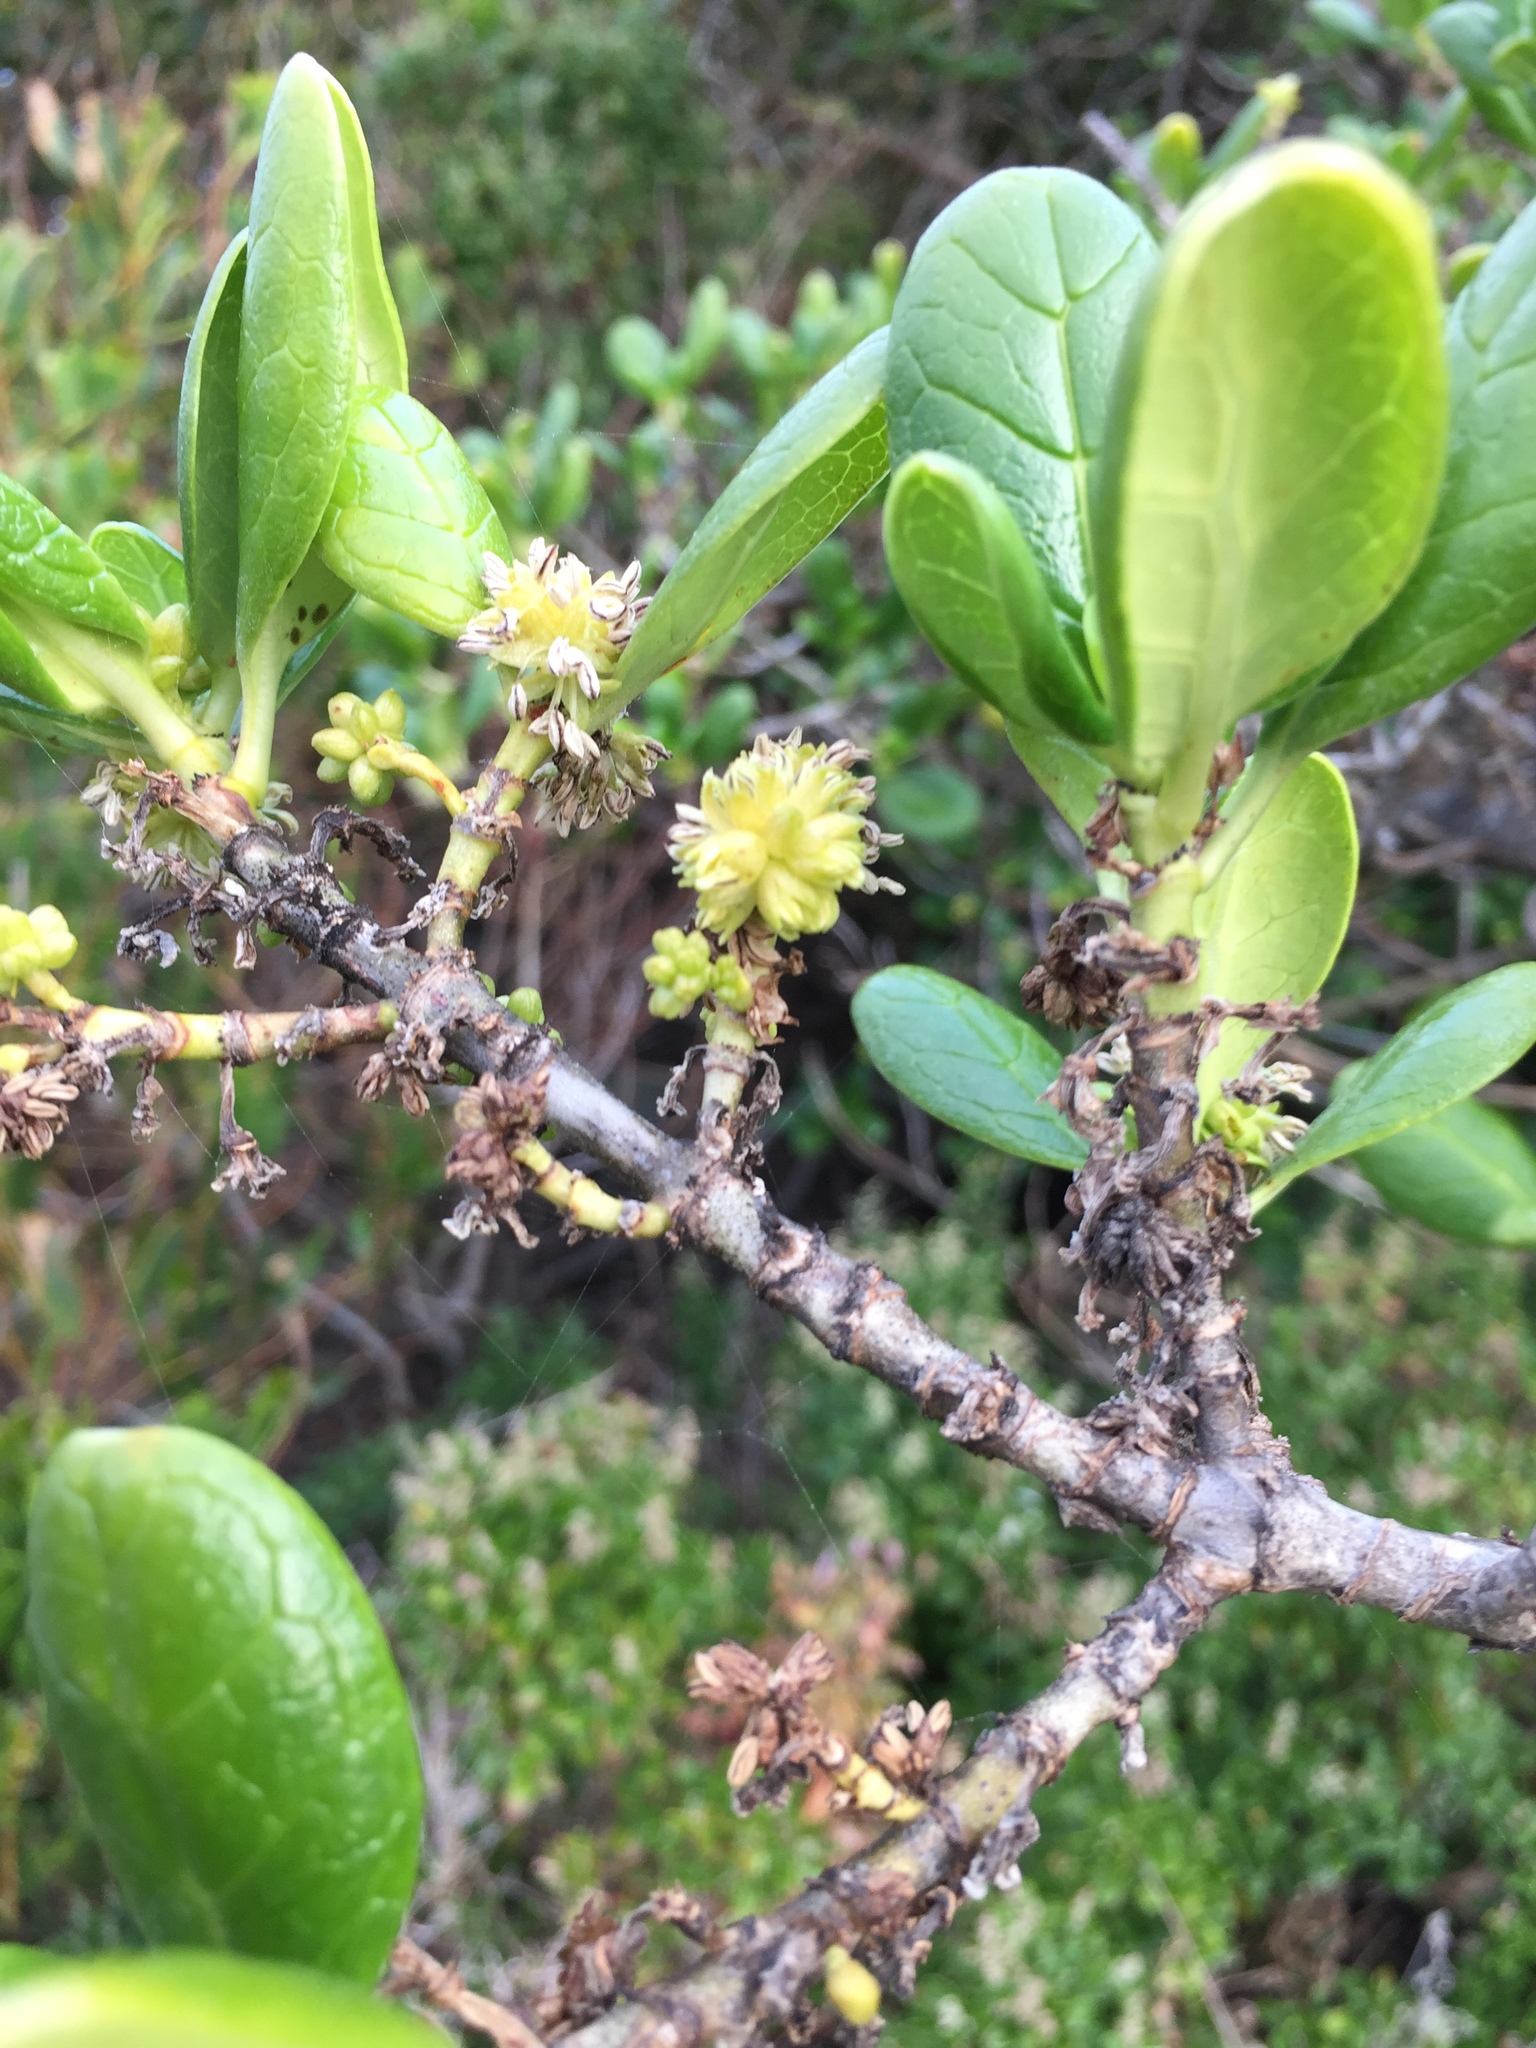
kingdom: Plantae
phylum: Tracheophyta
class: Magnoliopsida
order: Gentianales
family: Rubiaceae
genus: Coprosma
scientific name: Coprosma repens
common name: Tree bedstraw
